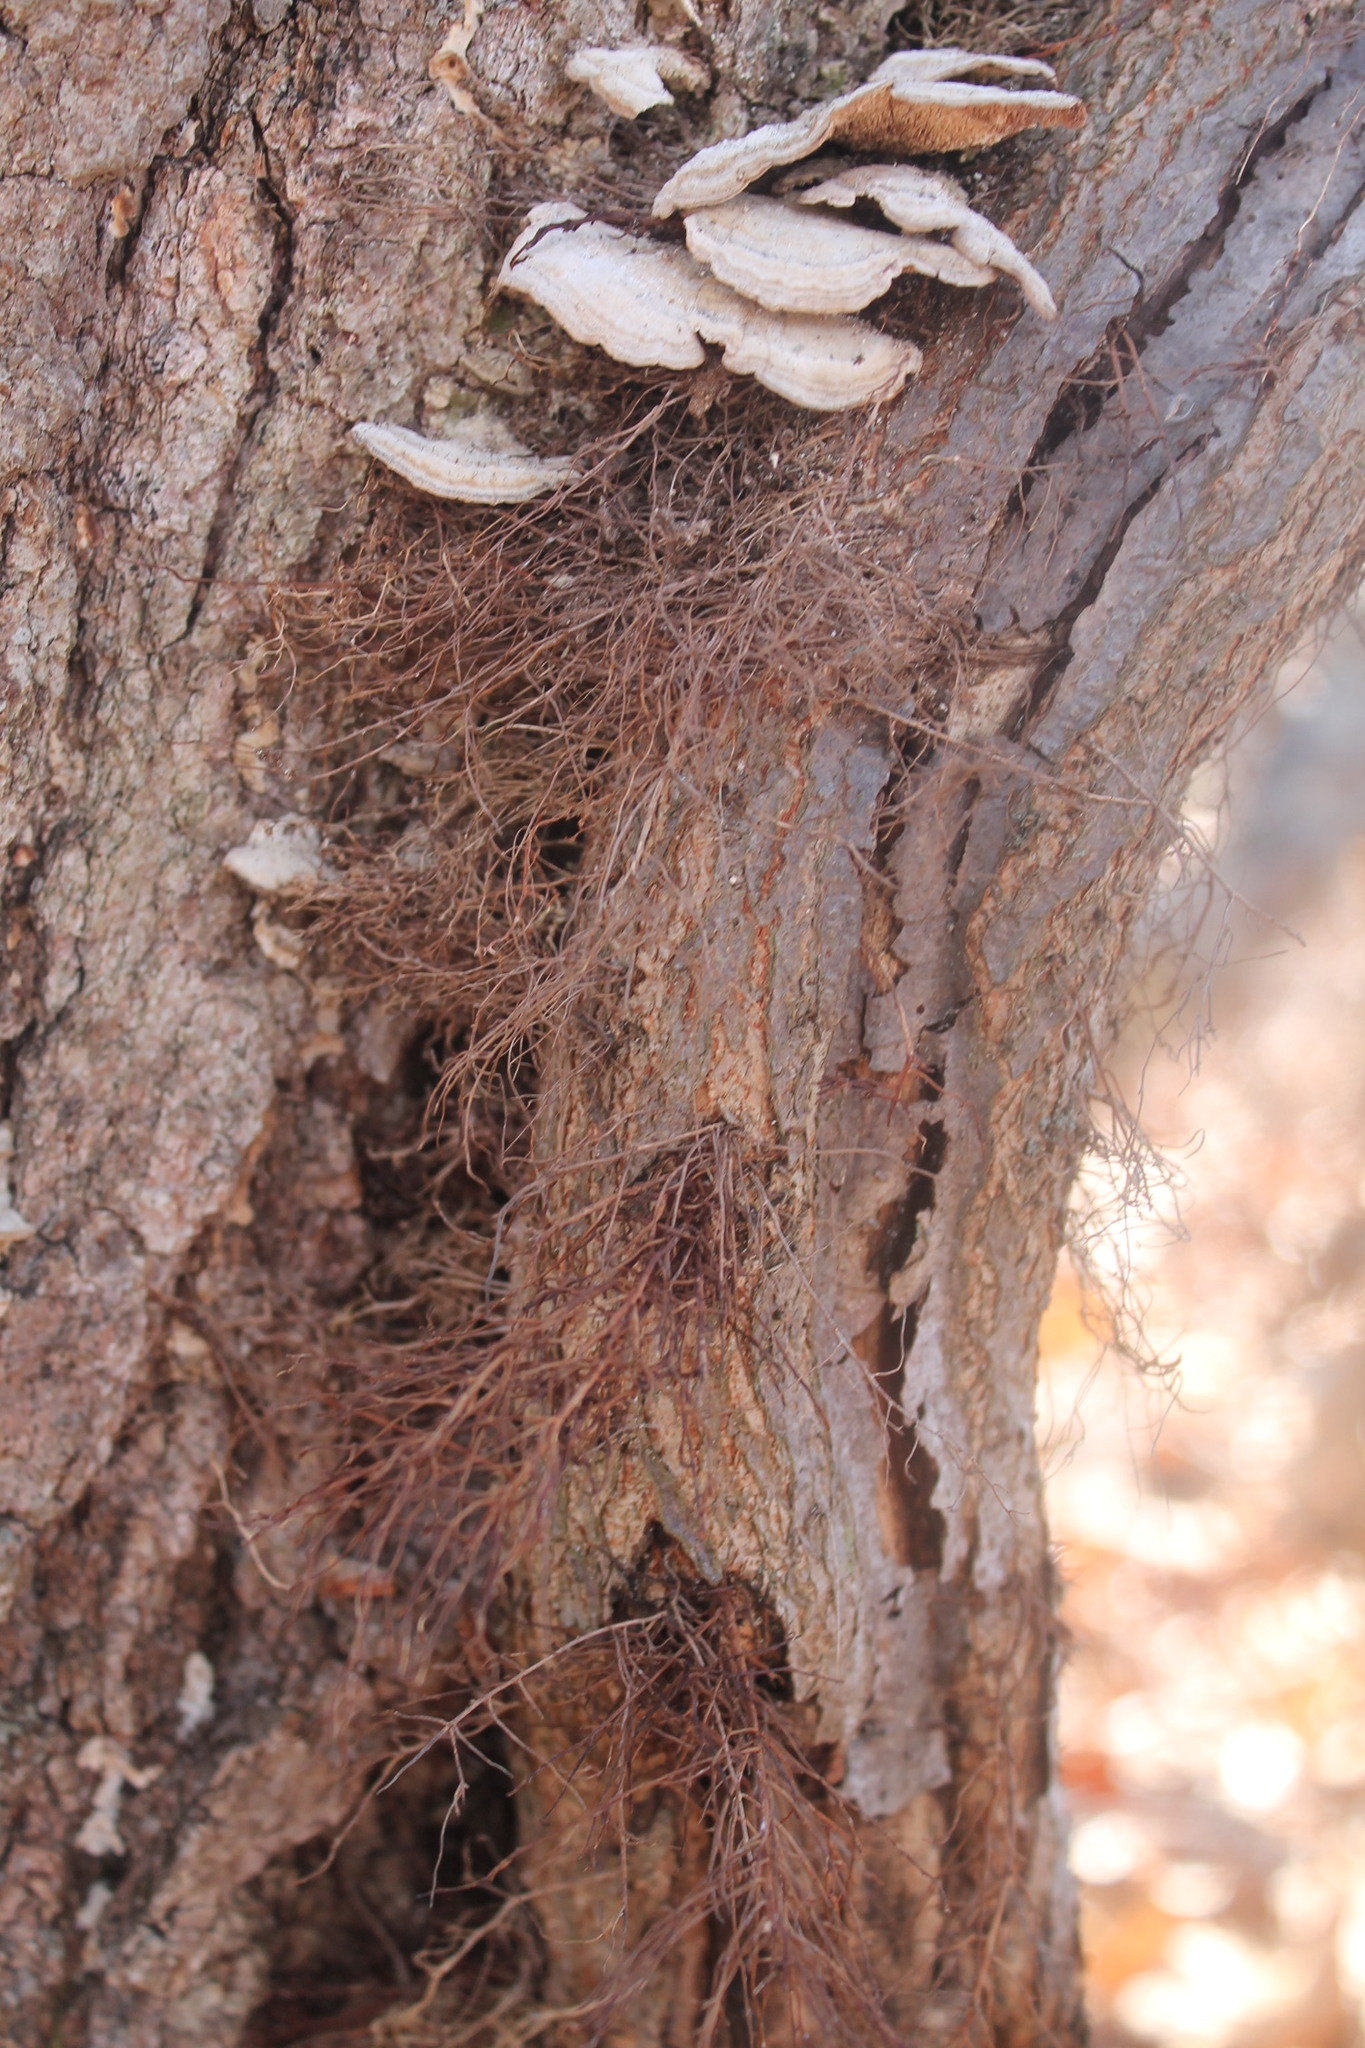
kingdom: Plantae
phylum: Tracheophyta
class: Magnoliopsida
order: Sapindales
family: Anacardiaceae
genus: Toxicodendron
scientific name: Toxicodendron radicans
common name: Poison ivy
